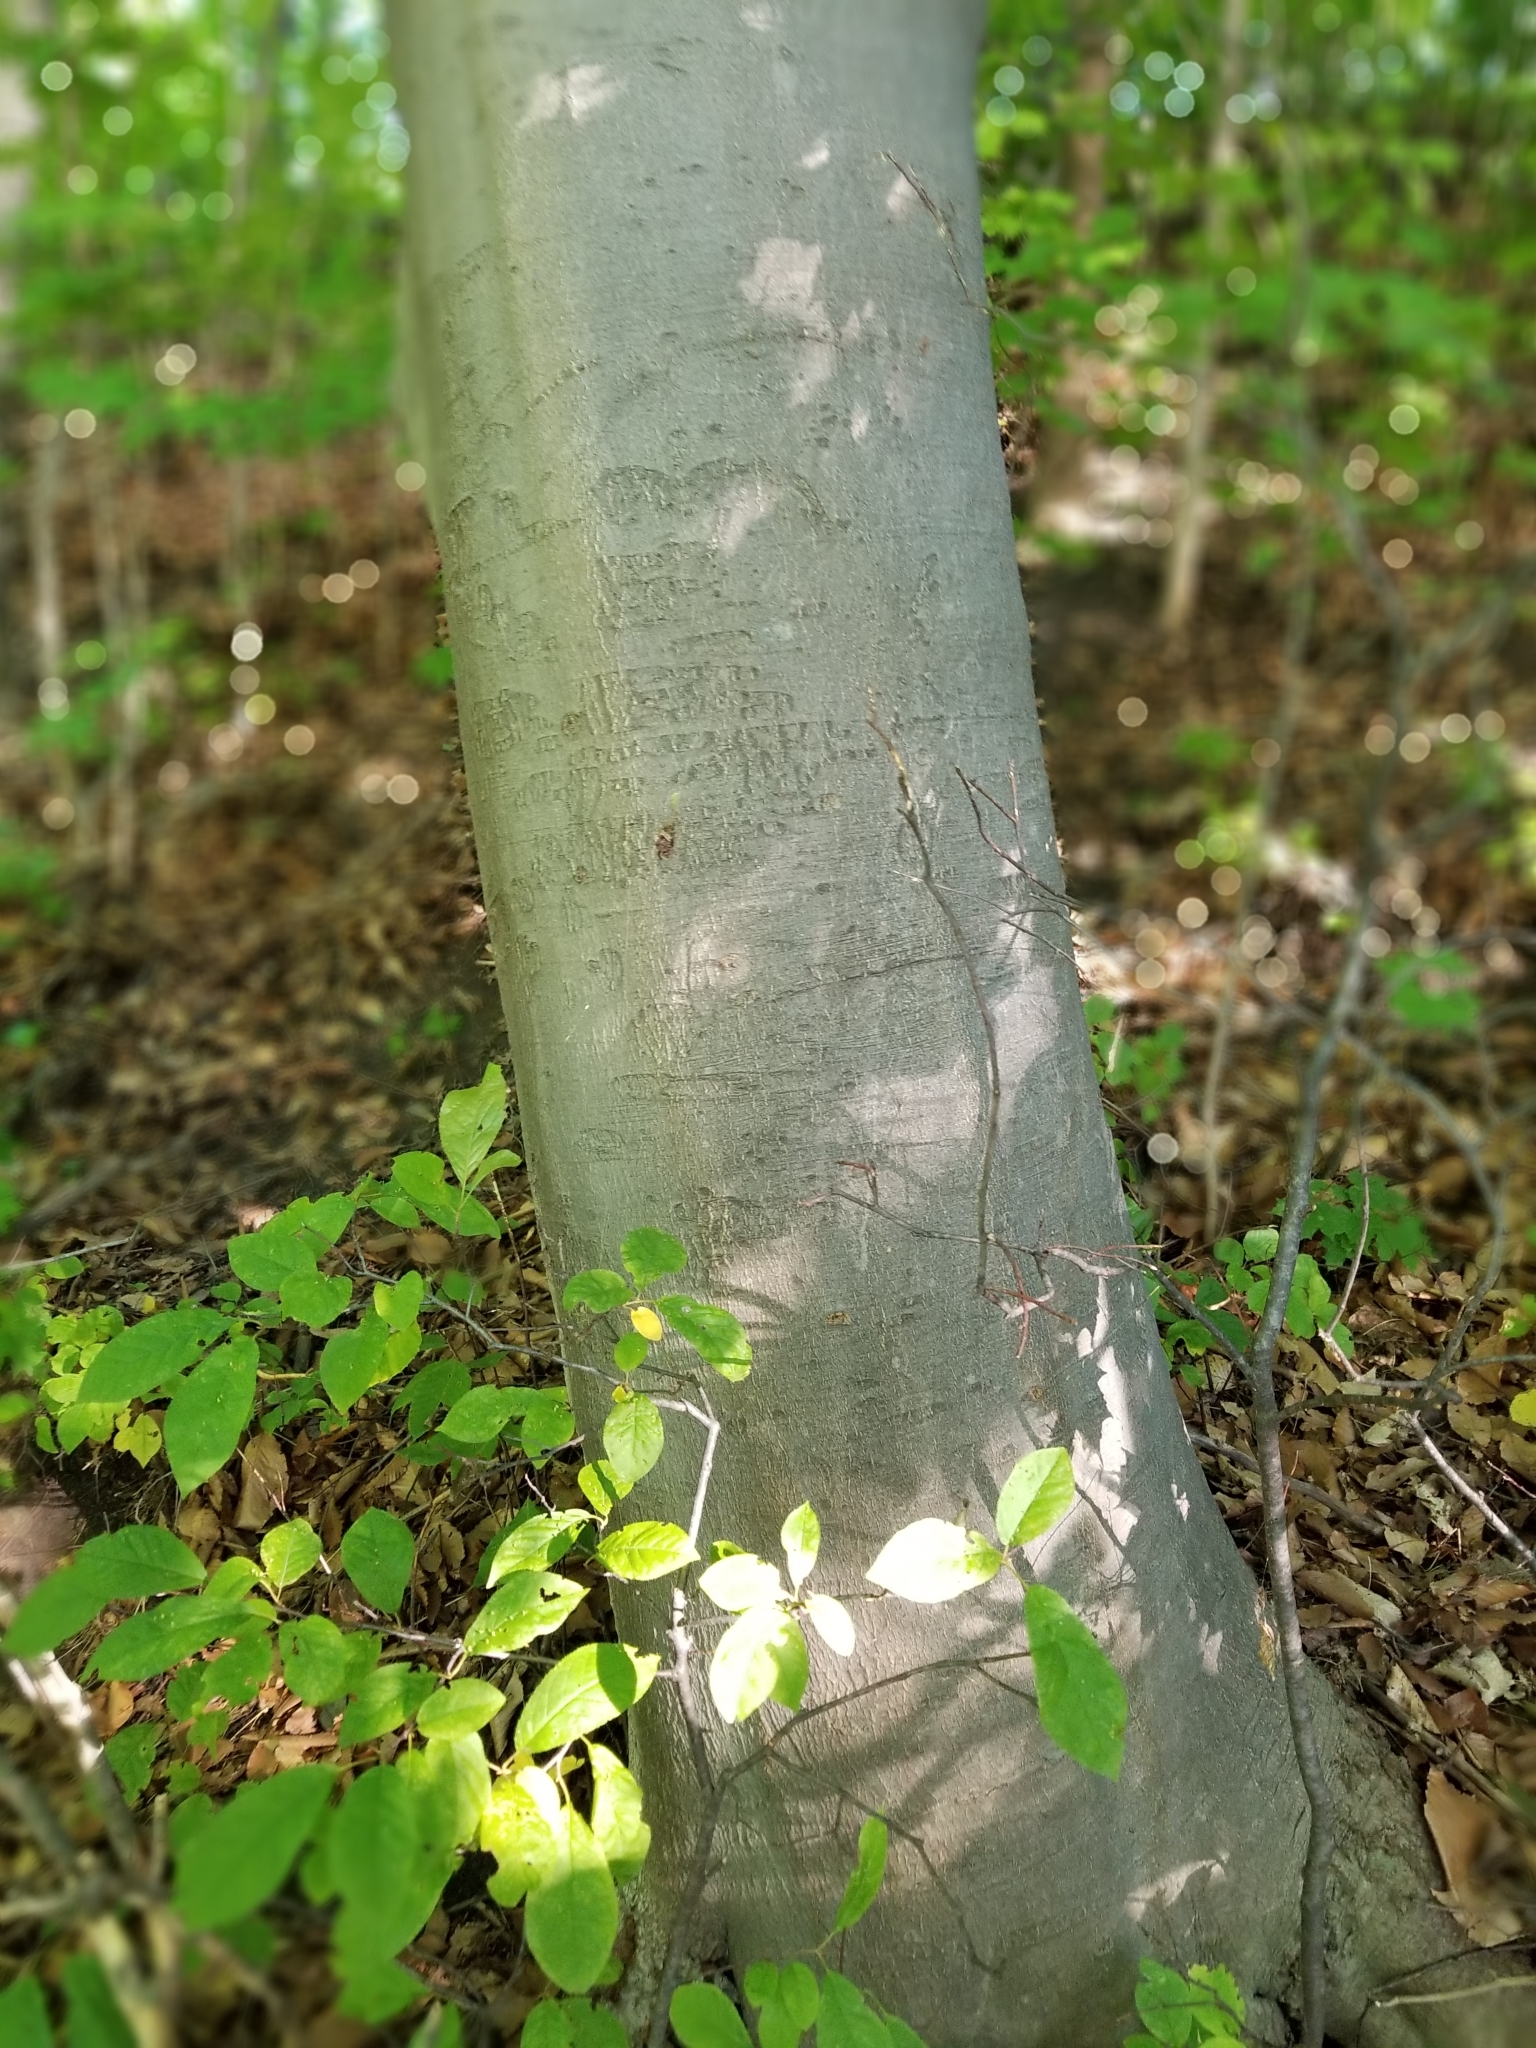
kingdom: Plantae
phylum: Tracheophyta
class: Magnoliopsida
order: Fagales
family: Fagaceae
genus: Fagus
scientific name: Fagus grandifolia
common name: American beech
